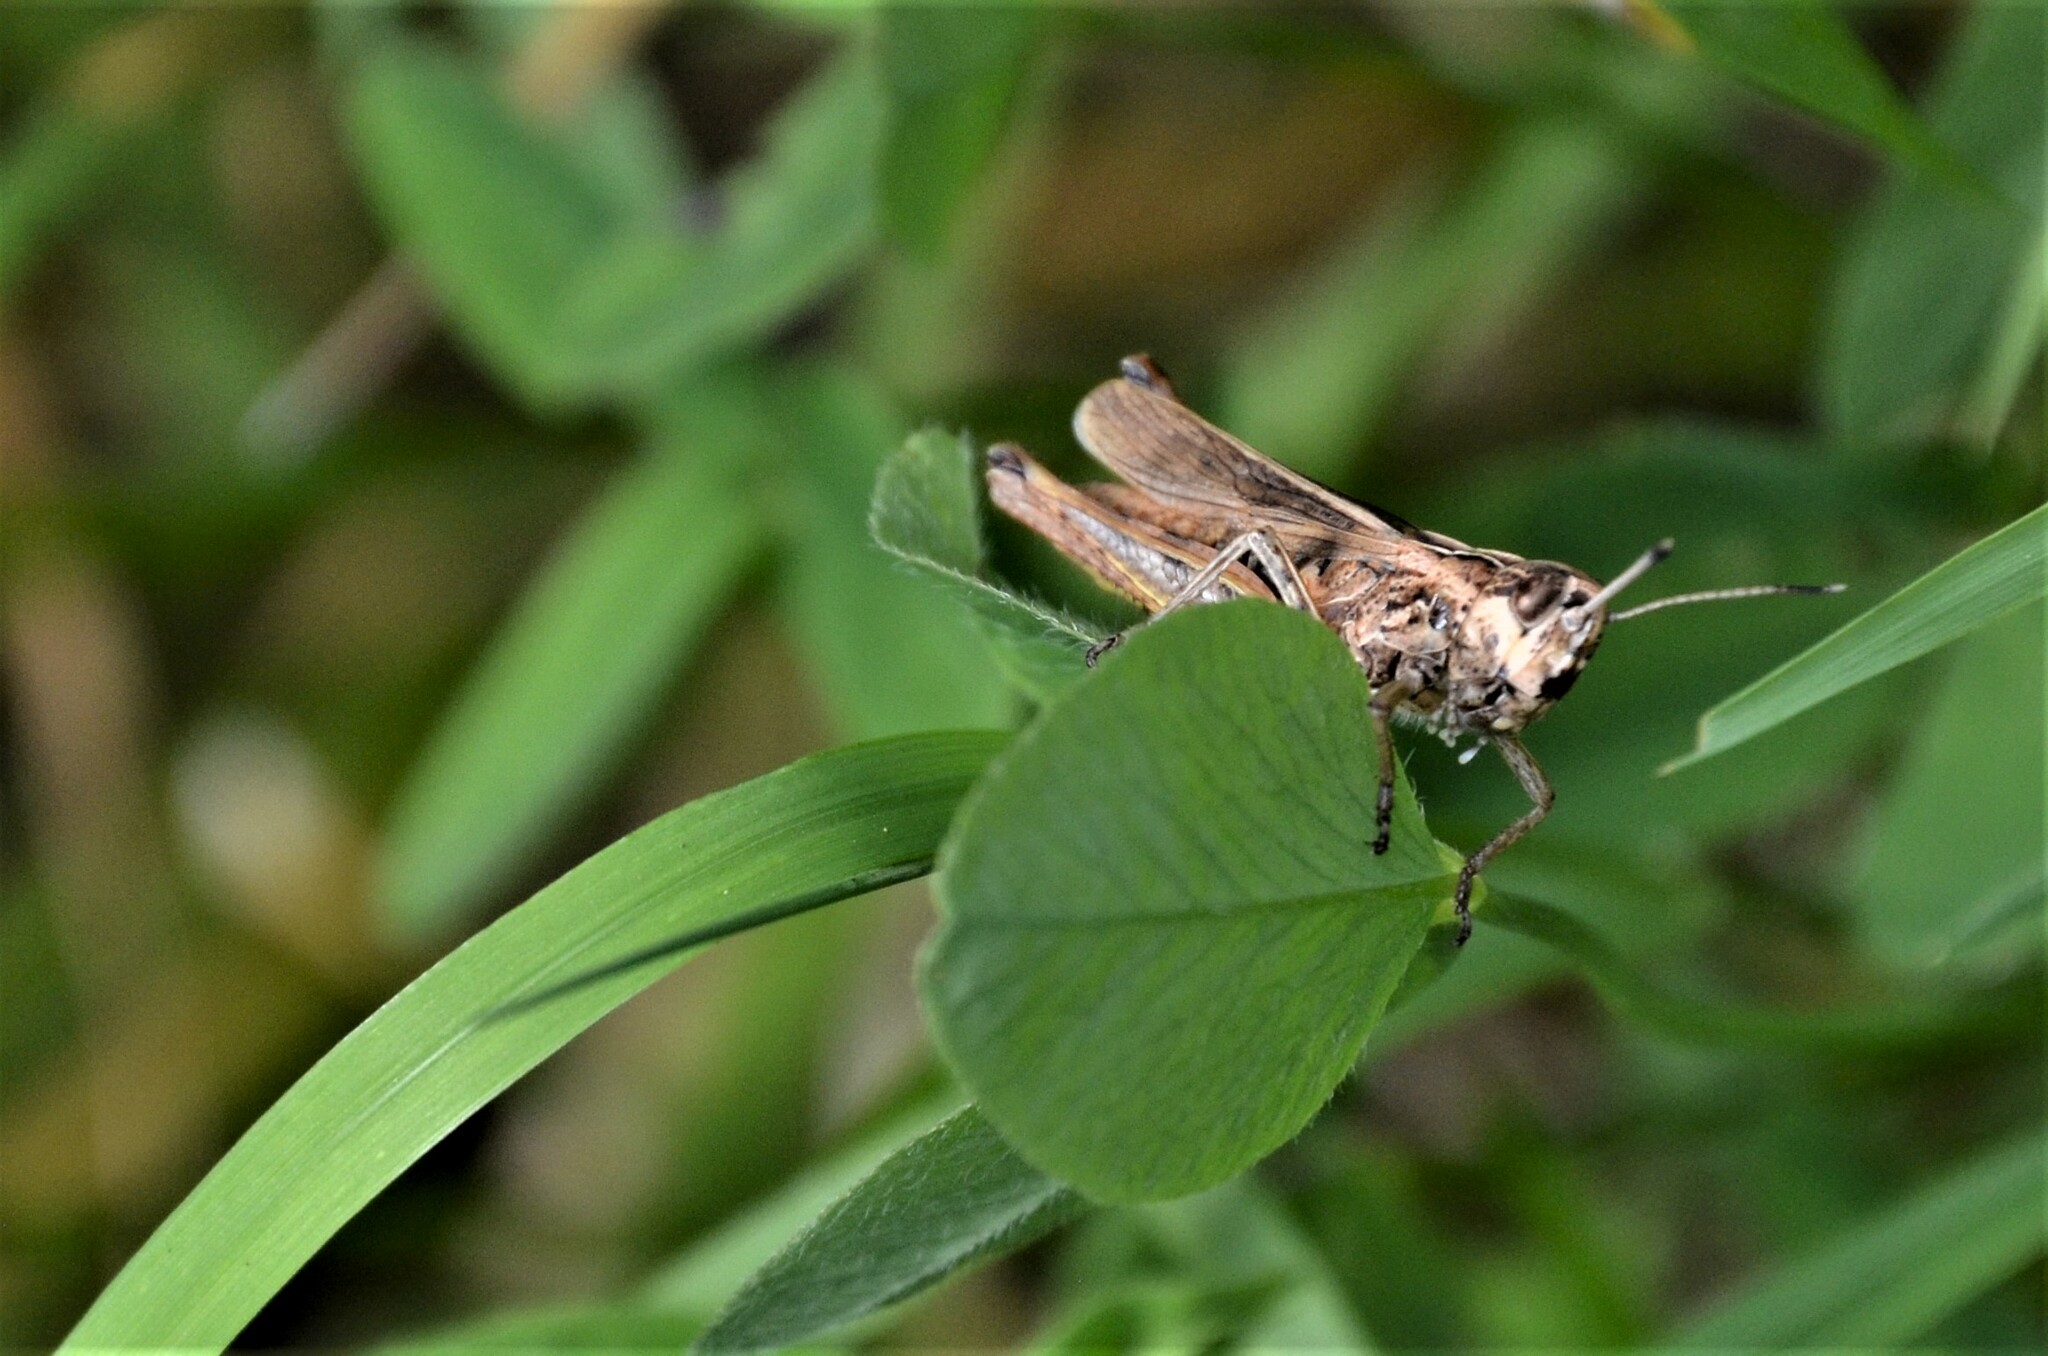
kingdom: Animalia
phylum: Arthropoda
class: Insecta
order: Orthoptera
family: Acrididae
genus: Gomphocerippus
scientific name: Gomphocerippus rufus
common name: Rufous grasshopper
